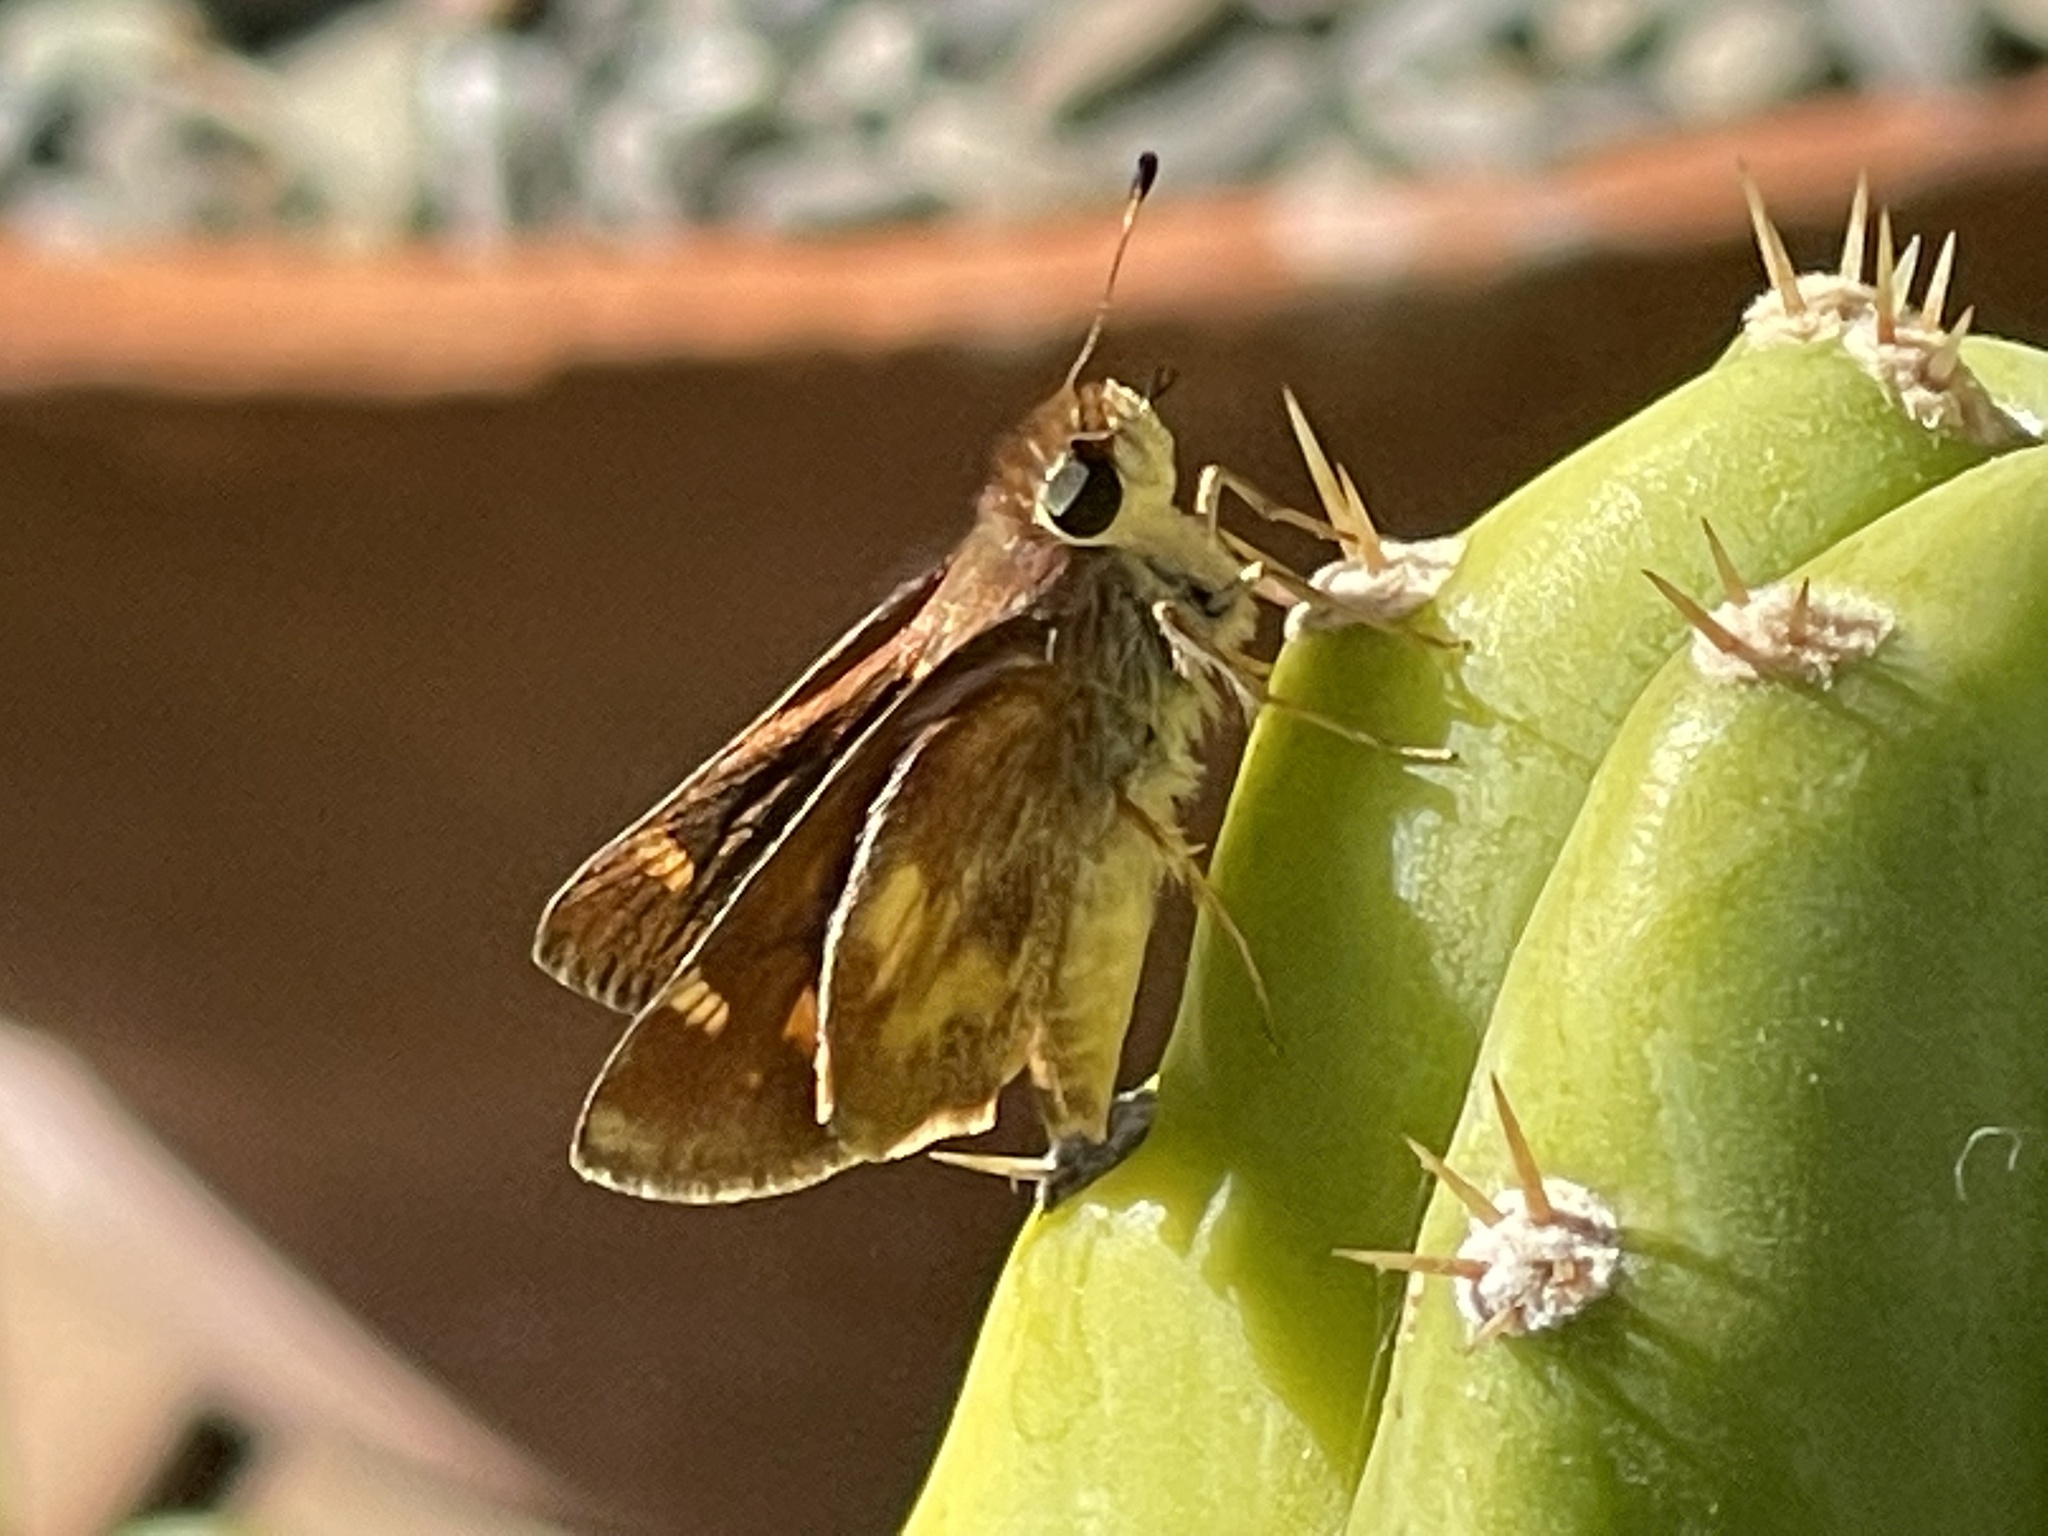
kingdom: Animalia
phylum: Arthropoda
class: Insecta
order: Lepidoptera
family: Hesperiidae
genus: Lon
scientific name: Lon melane
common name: Umber skipper
